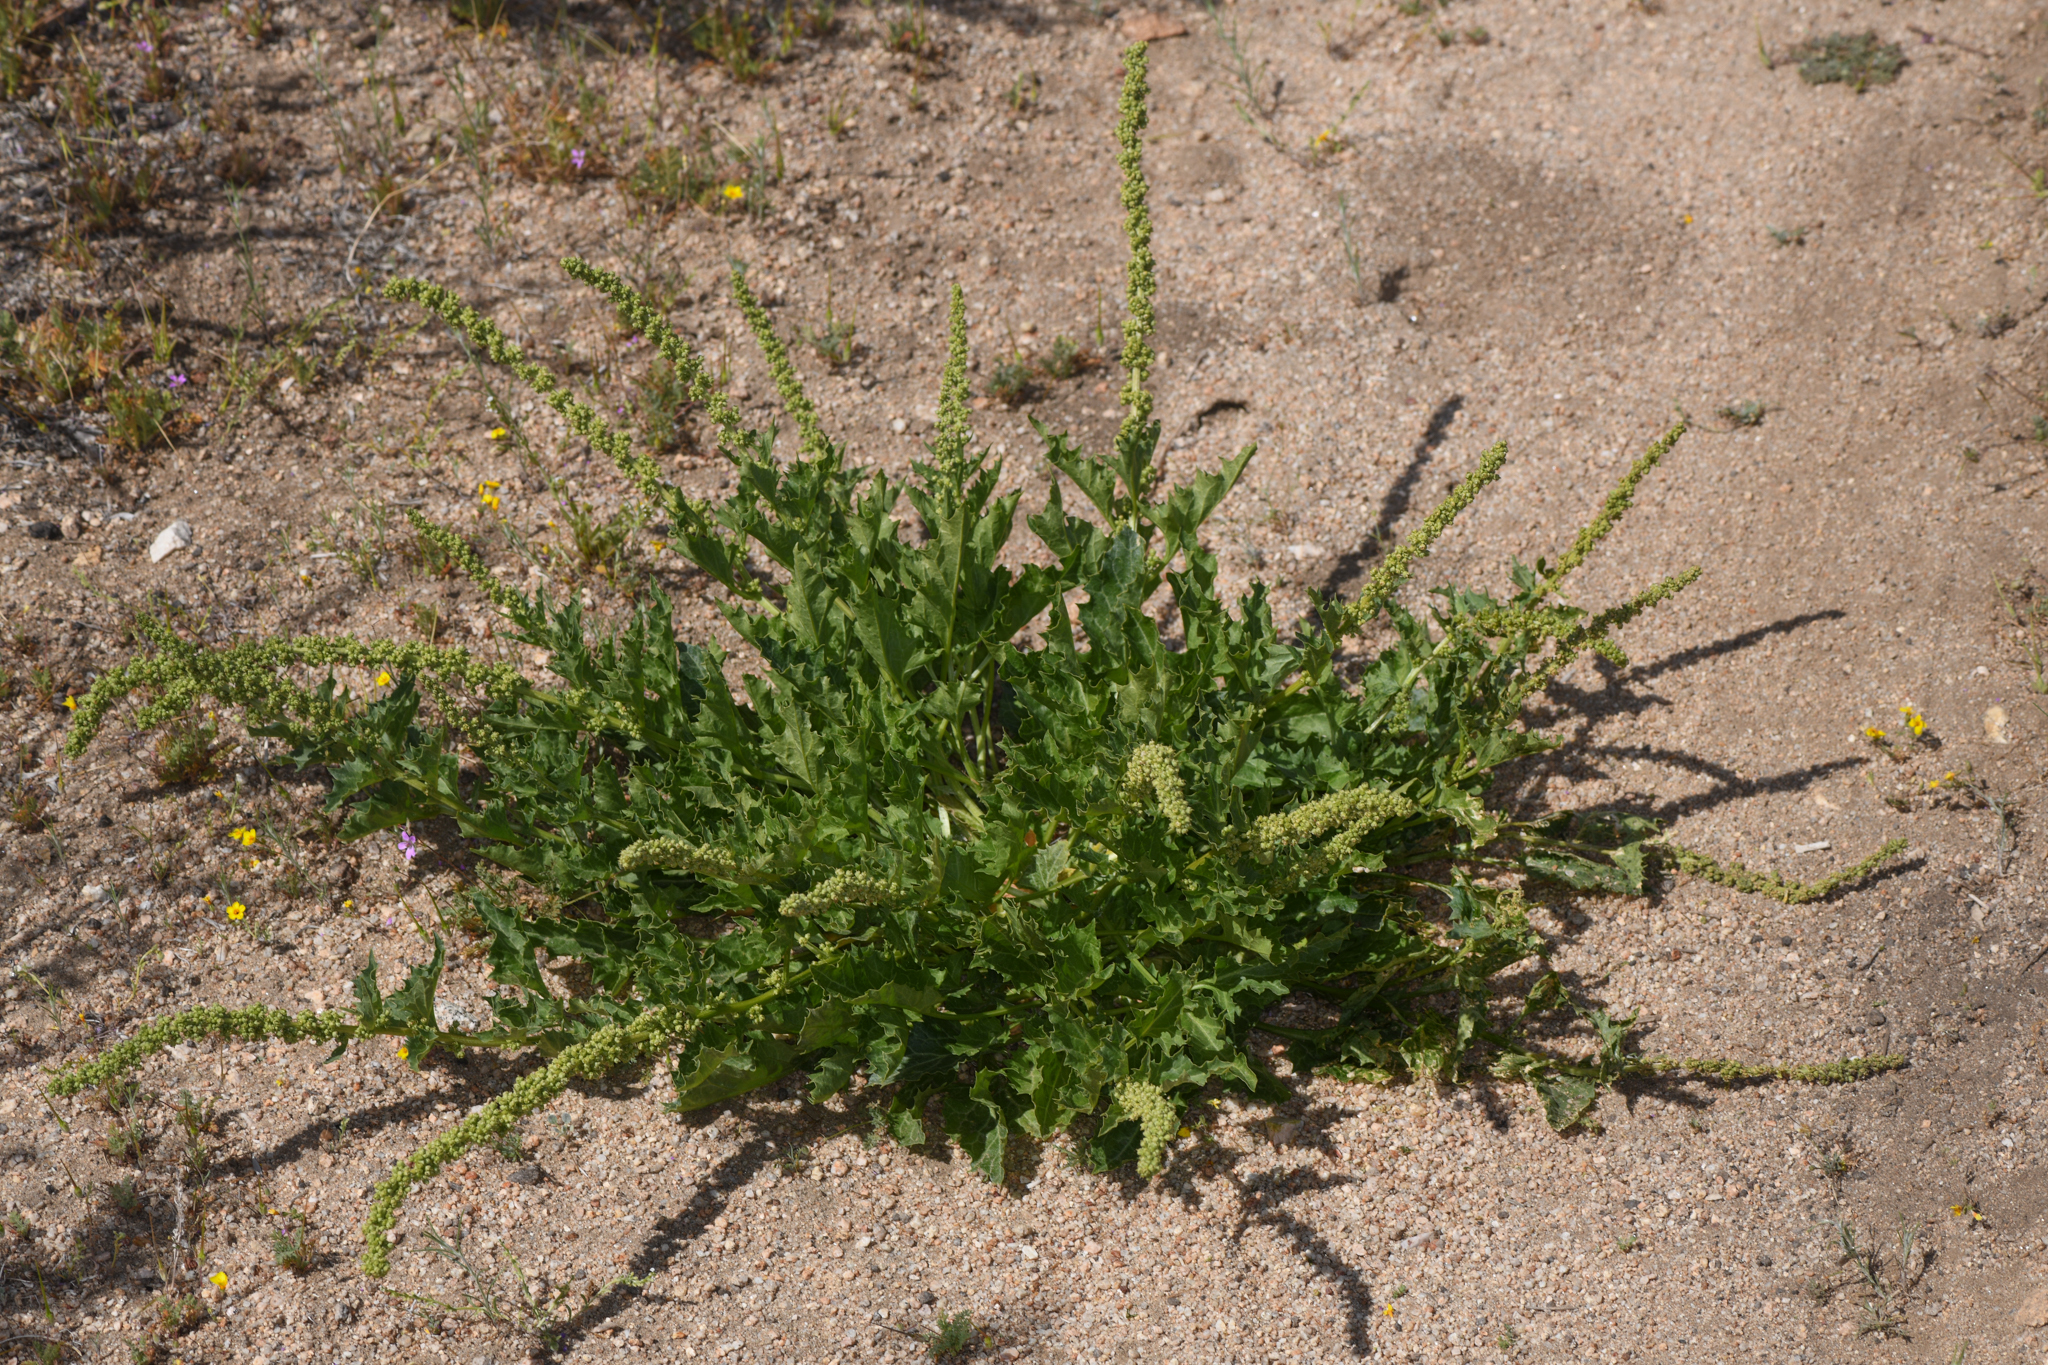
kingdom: Plantae
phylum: Tracheophyta
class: Magnoliopsida
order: Caryophyllales
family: Amaranthaceae
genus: Blitum
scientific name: Blitum californicum
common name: California goosefoot
